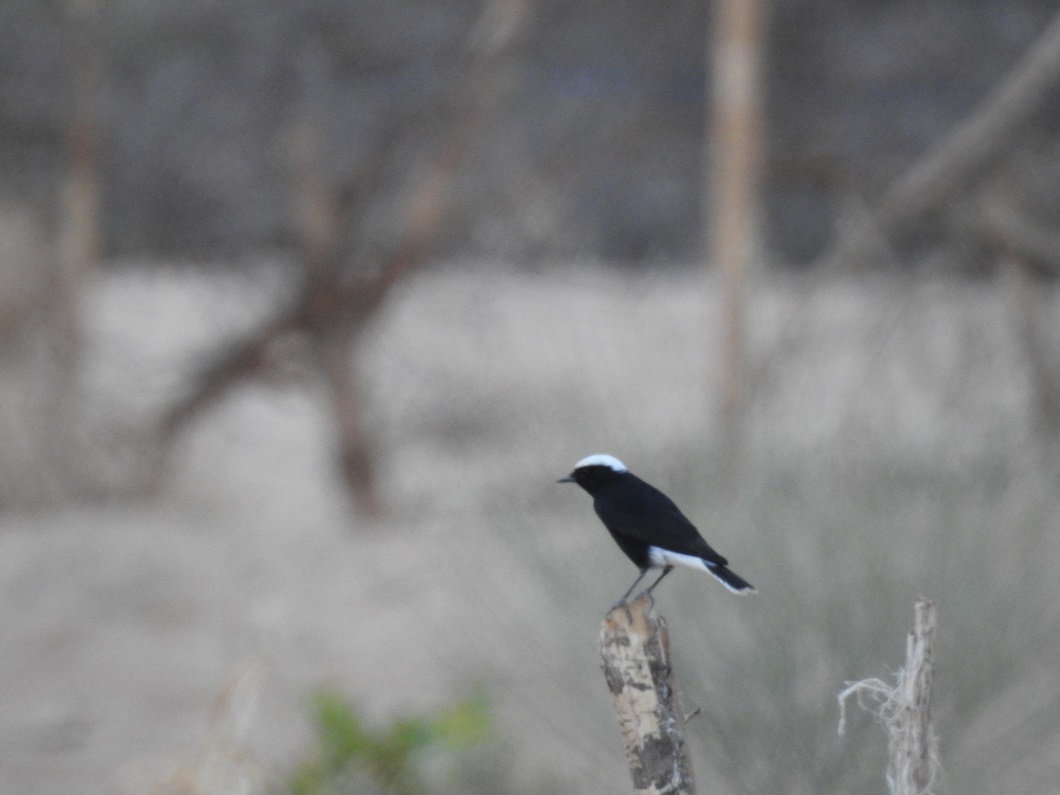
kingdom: Animalia
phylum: Chordata
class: Aves
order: Passeriformes
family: Muscicapidae
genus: Oenanthe
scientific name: Oenanthe leucopyga
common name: White-crowned wheatear
